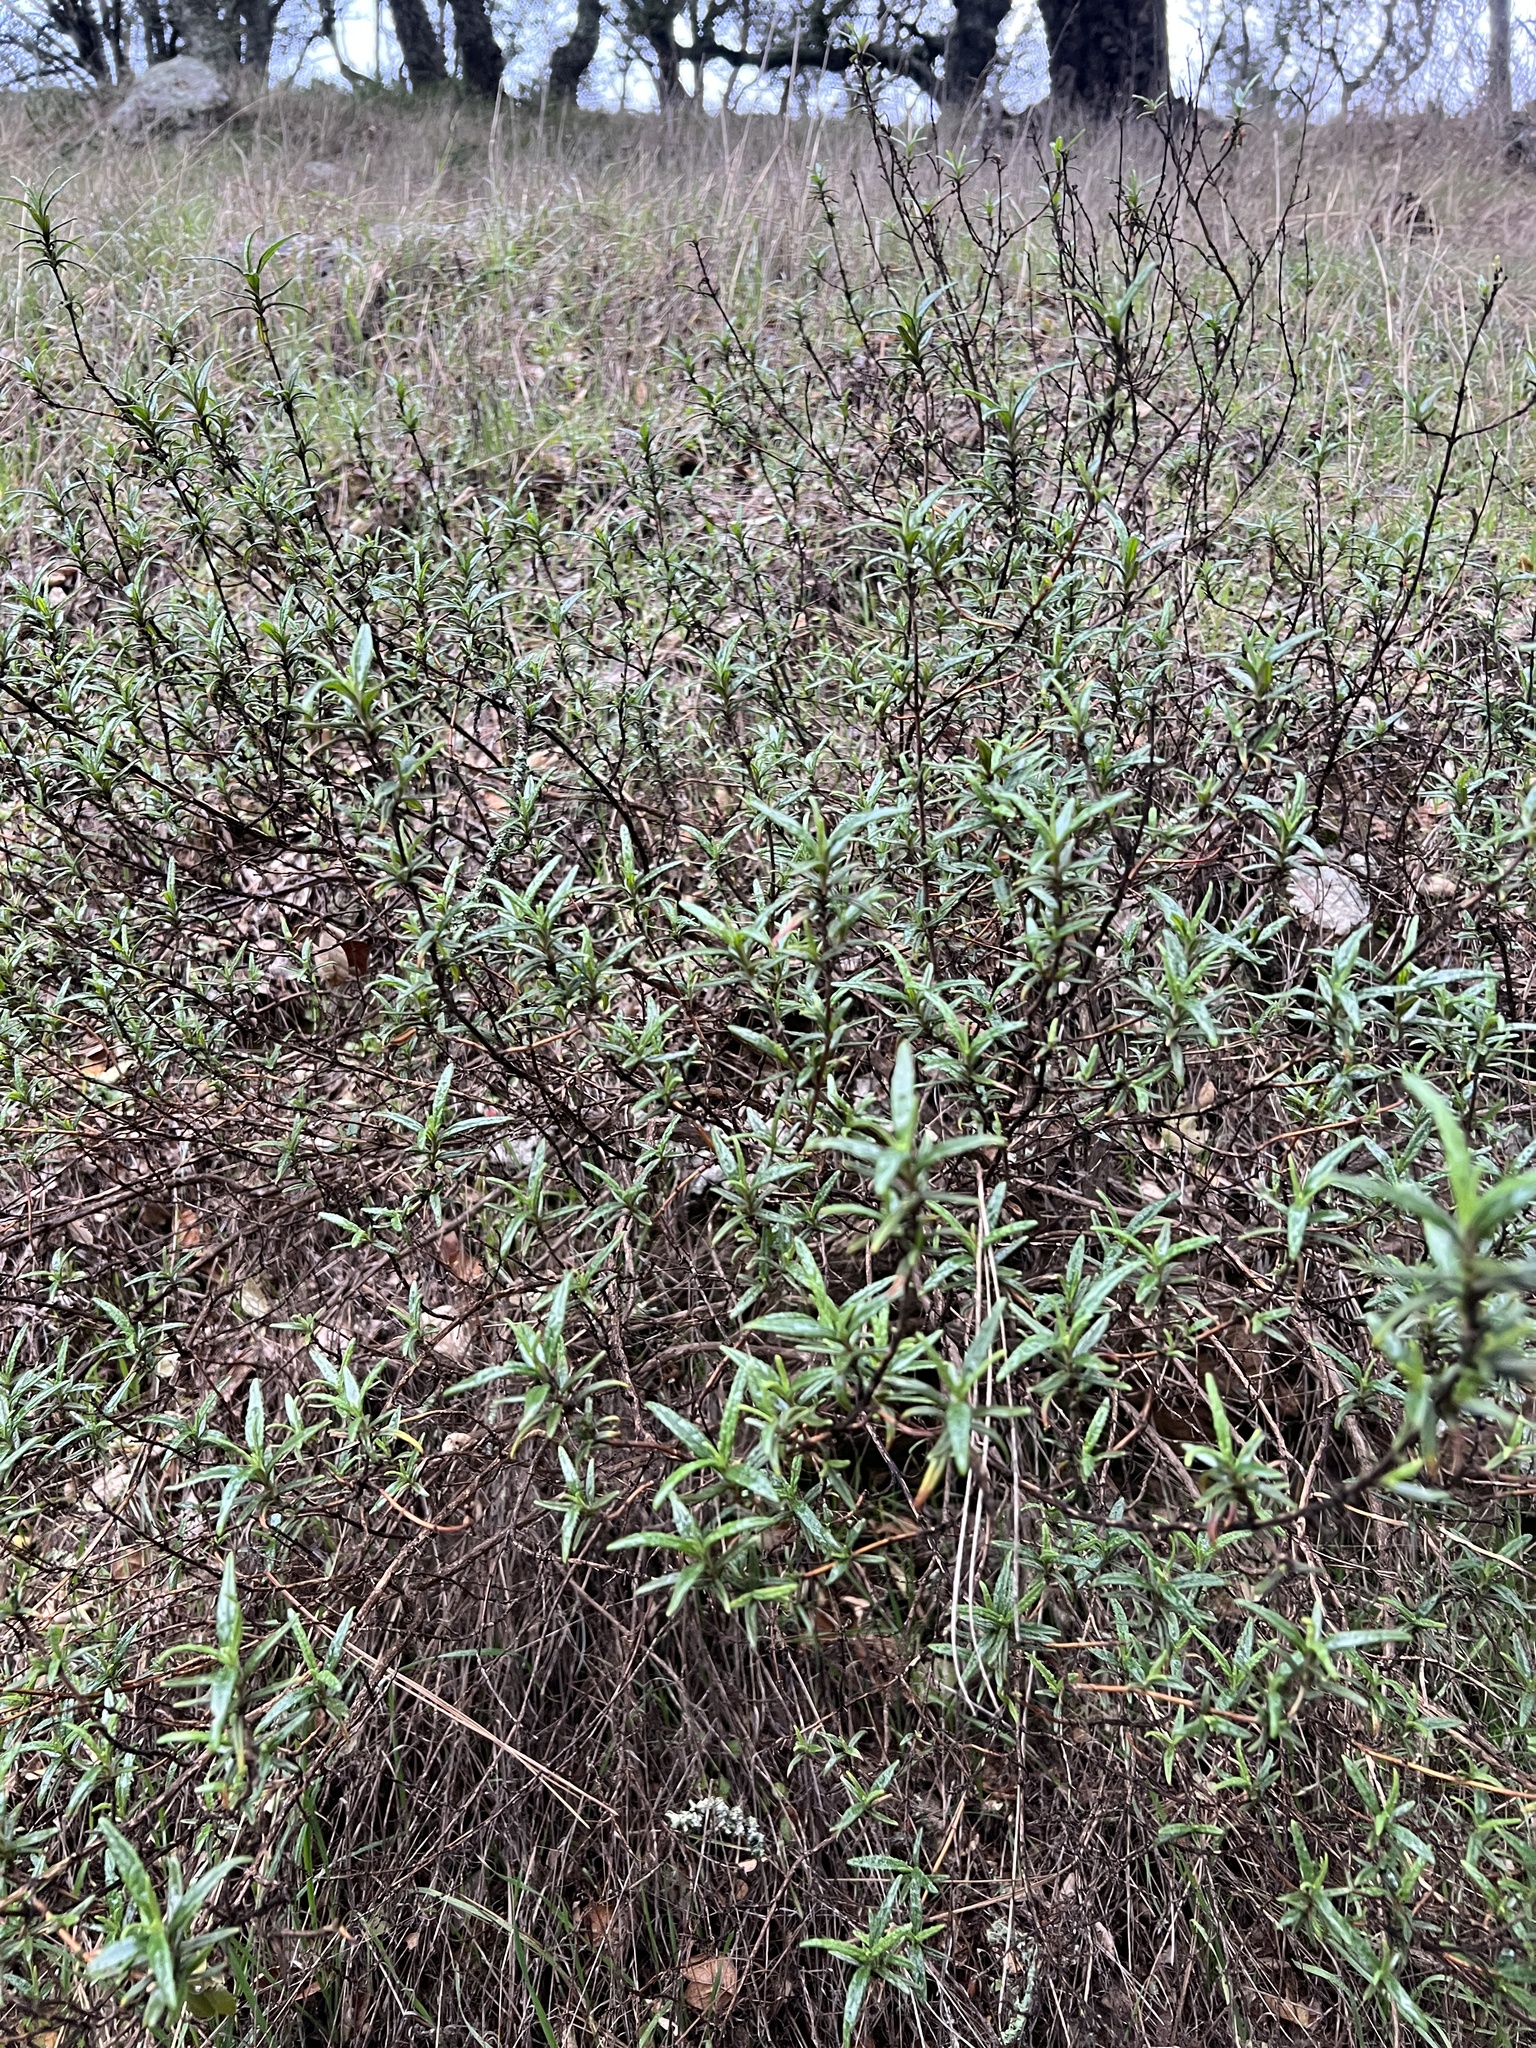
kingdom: Plantae
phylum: Tracheophyta
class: Magnoliopsida
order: Lamiales
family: Phrymaceae
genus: Diplacus
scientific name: Diplacus aurantiacus
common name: Bush monkey-flower
